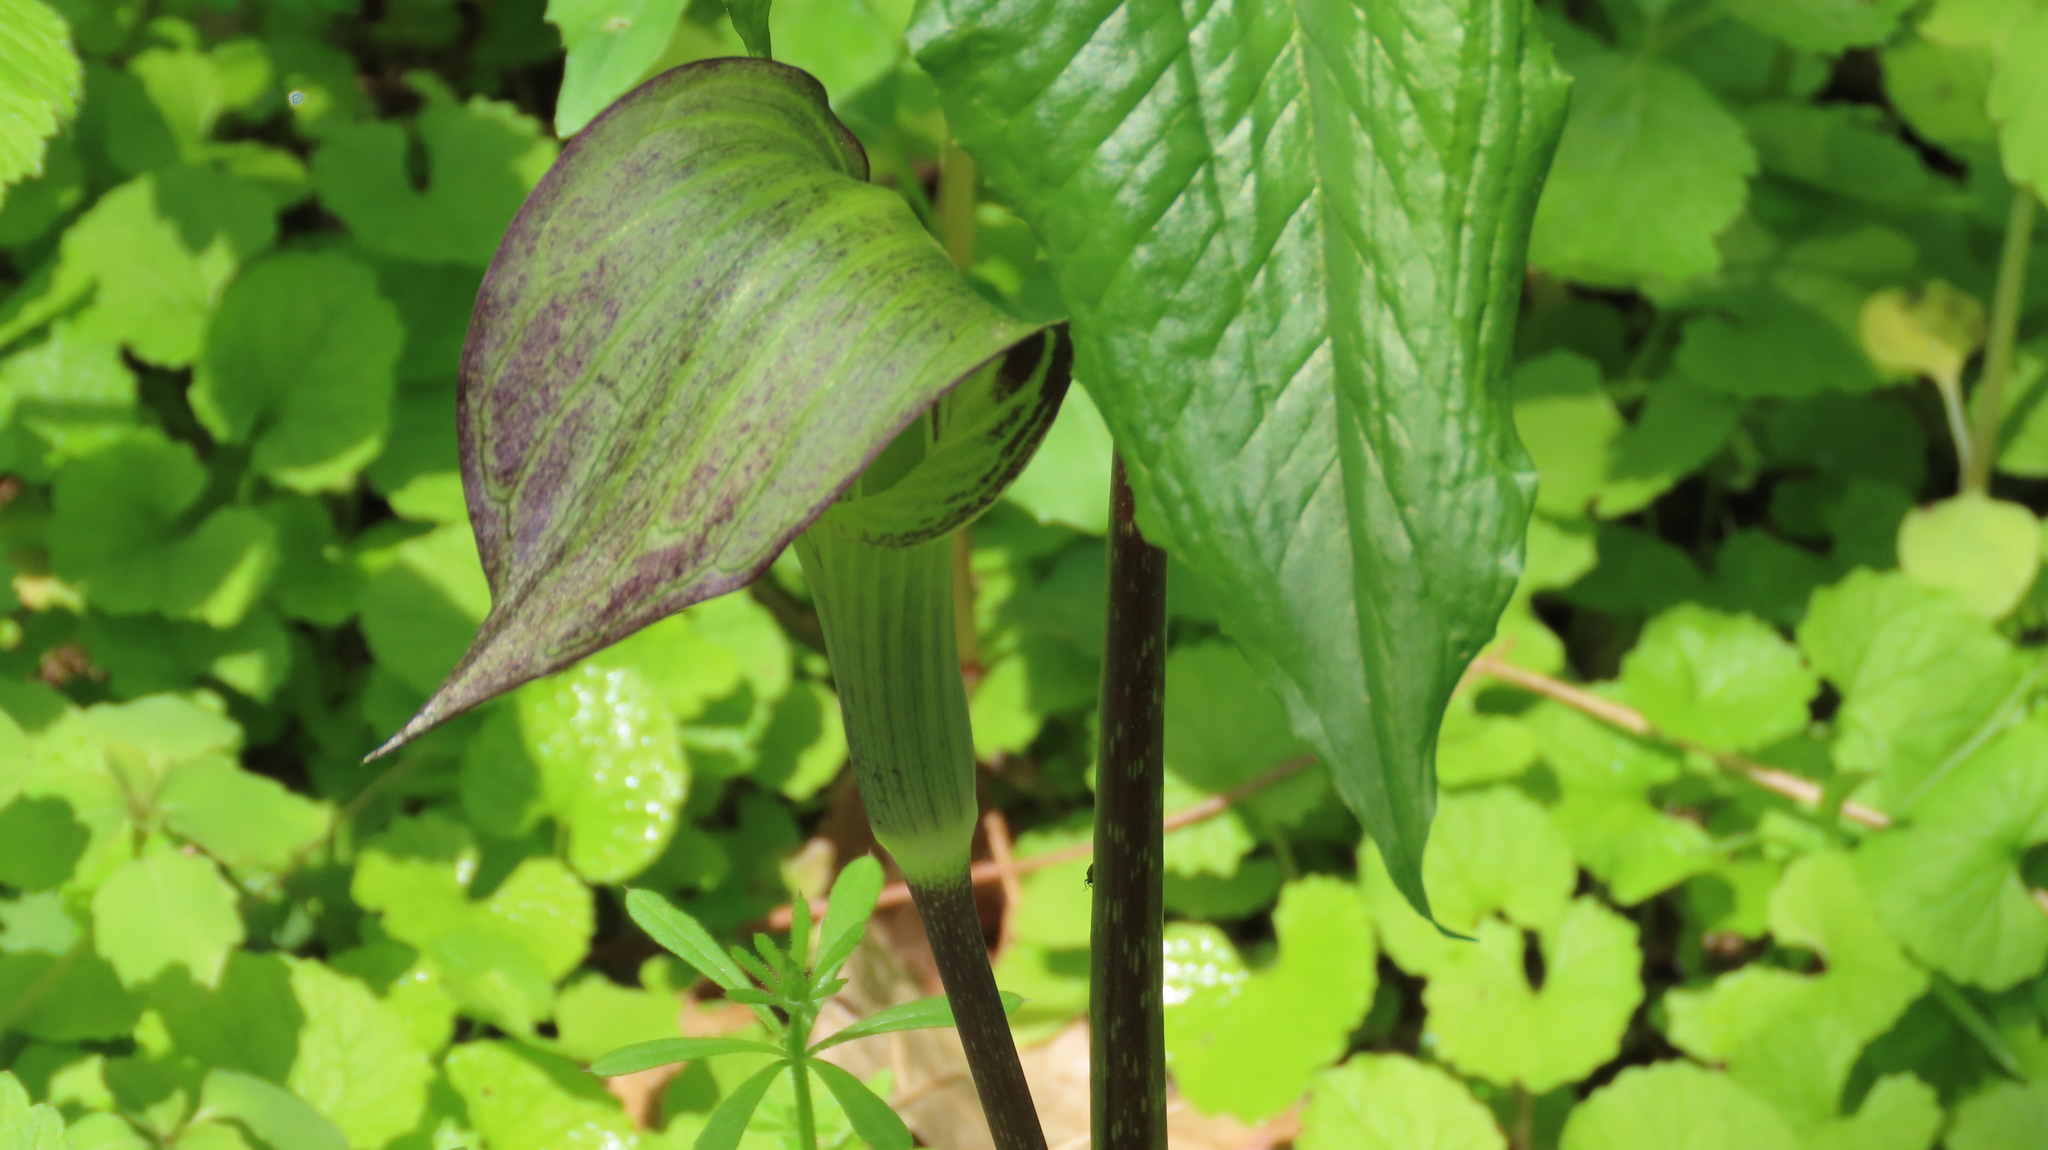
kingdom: Plantae
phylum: Tracheophyta
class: Liliopsida
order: Alismatales
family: Araceae
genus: Arisaema
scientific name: Arisaema triphyllum
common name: Jack-in-the-pulpit
